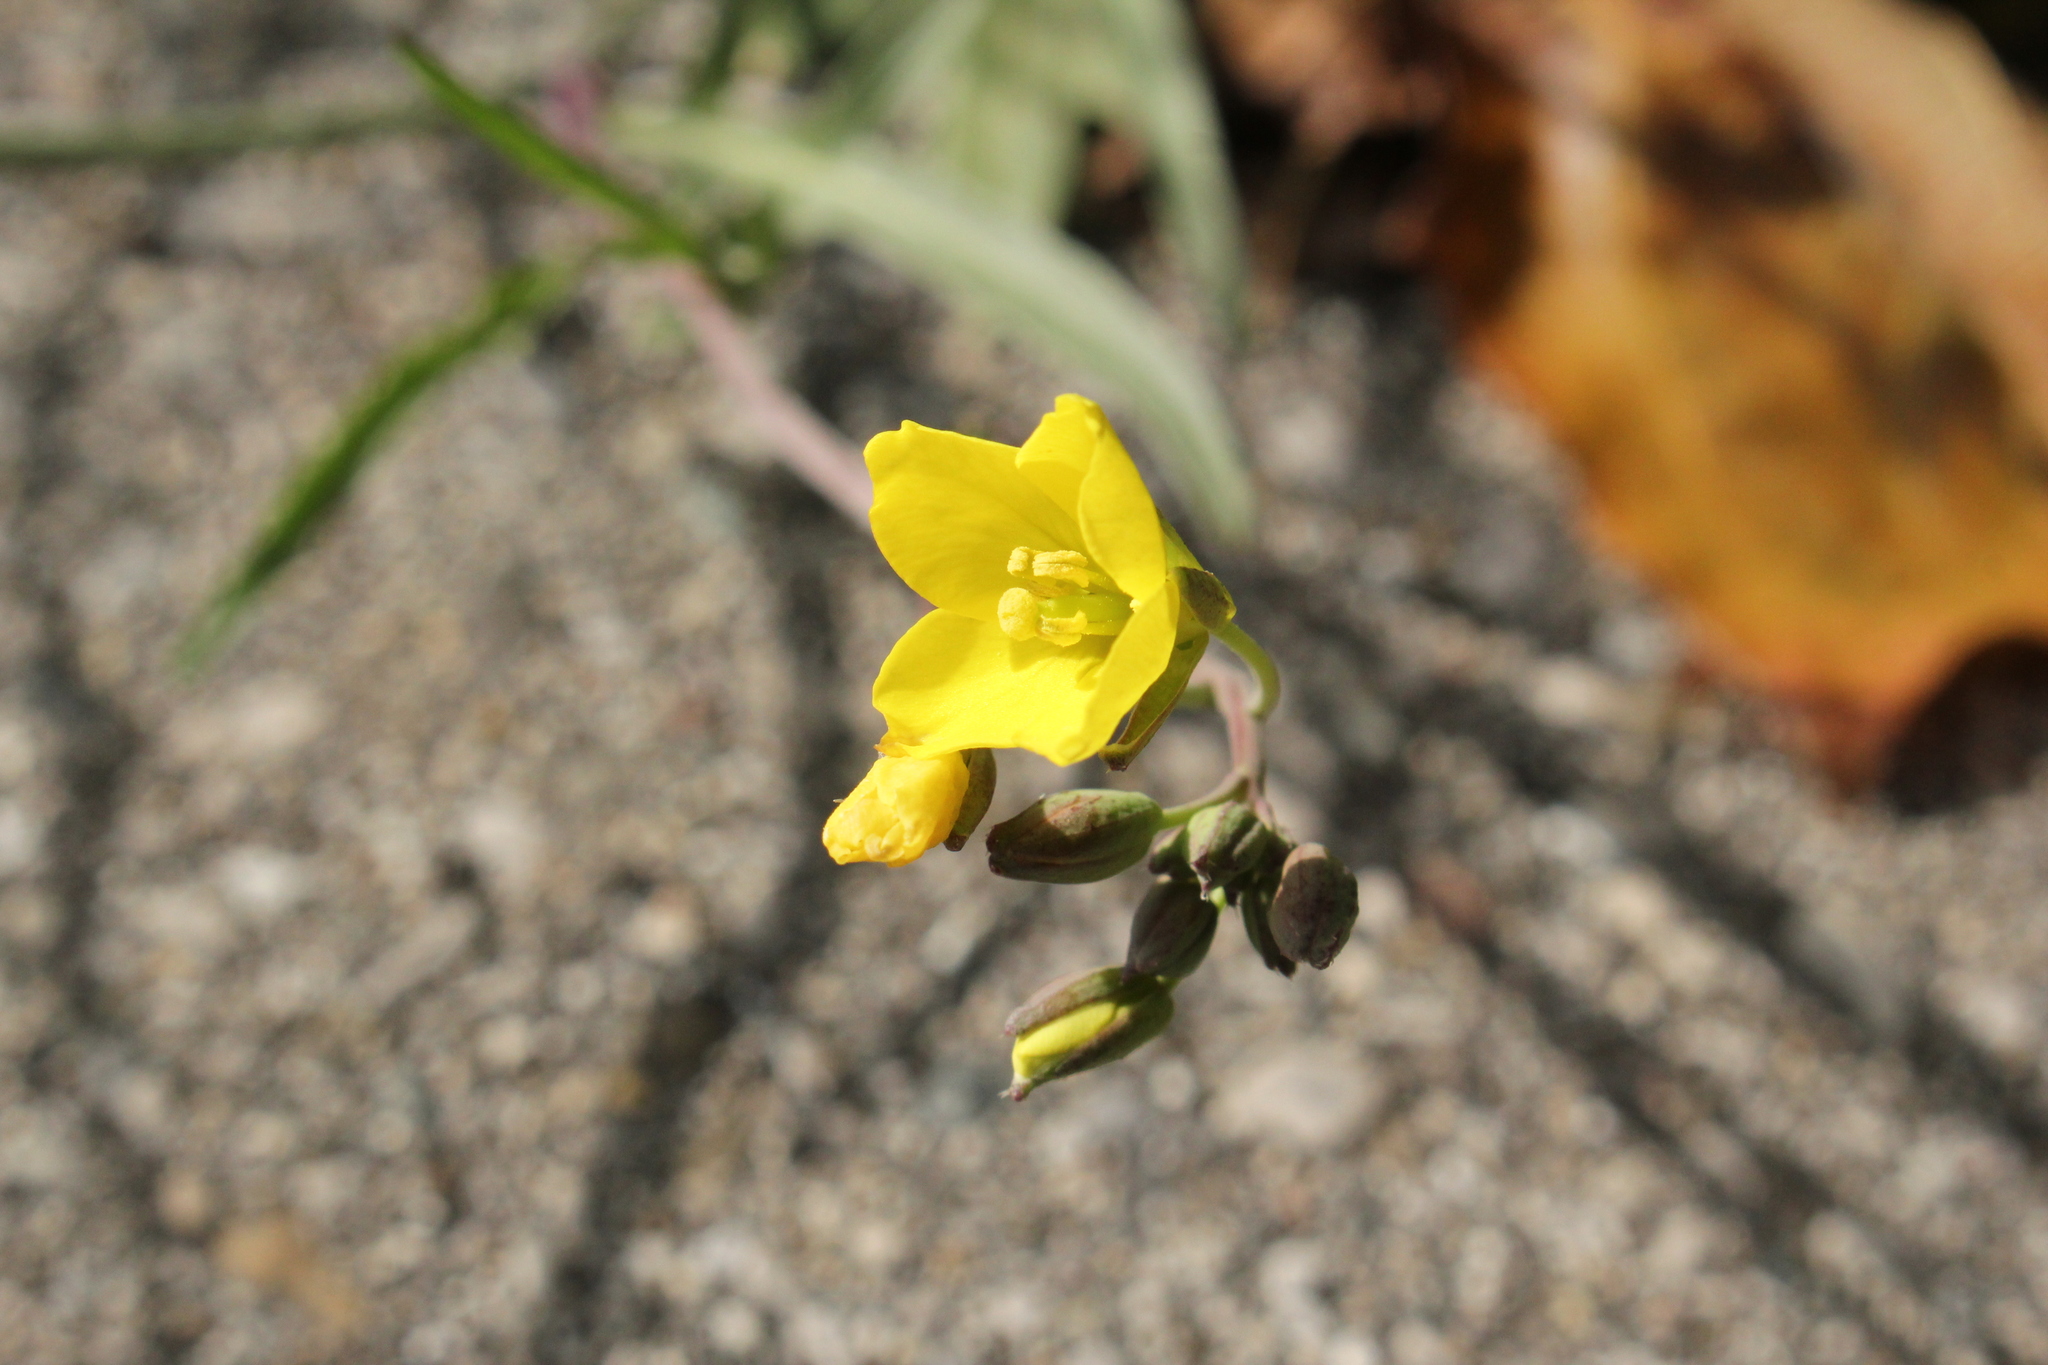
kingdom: Plantae
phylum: Tracheophyta
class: Magnoliopsida
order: Brassicales
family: Brassicaceae
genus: Diplotaxis
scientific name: Diplotaxis tenuifolia
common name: Perennial wall-rocket
